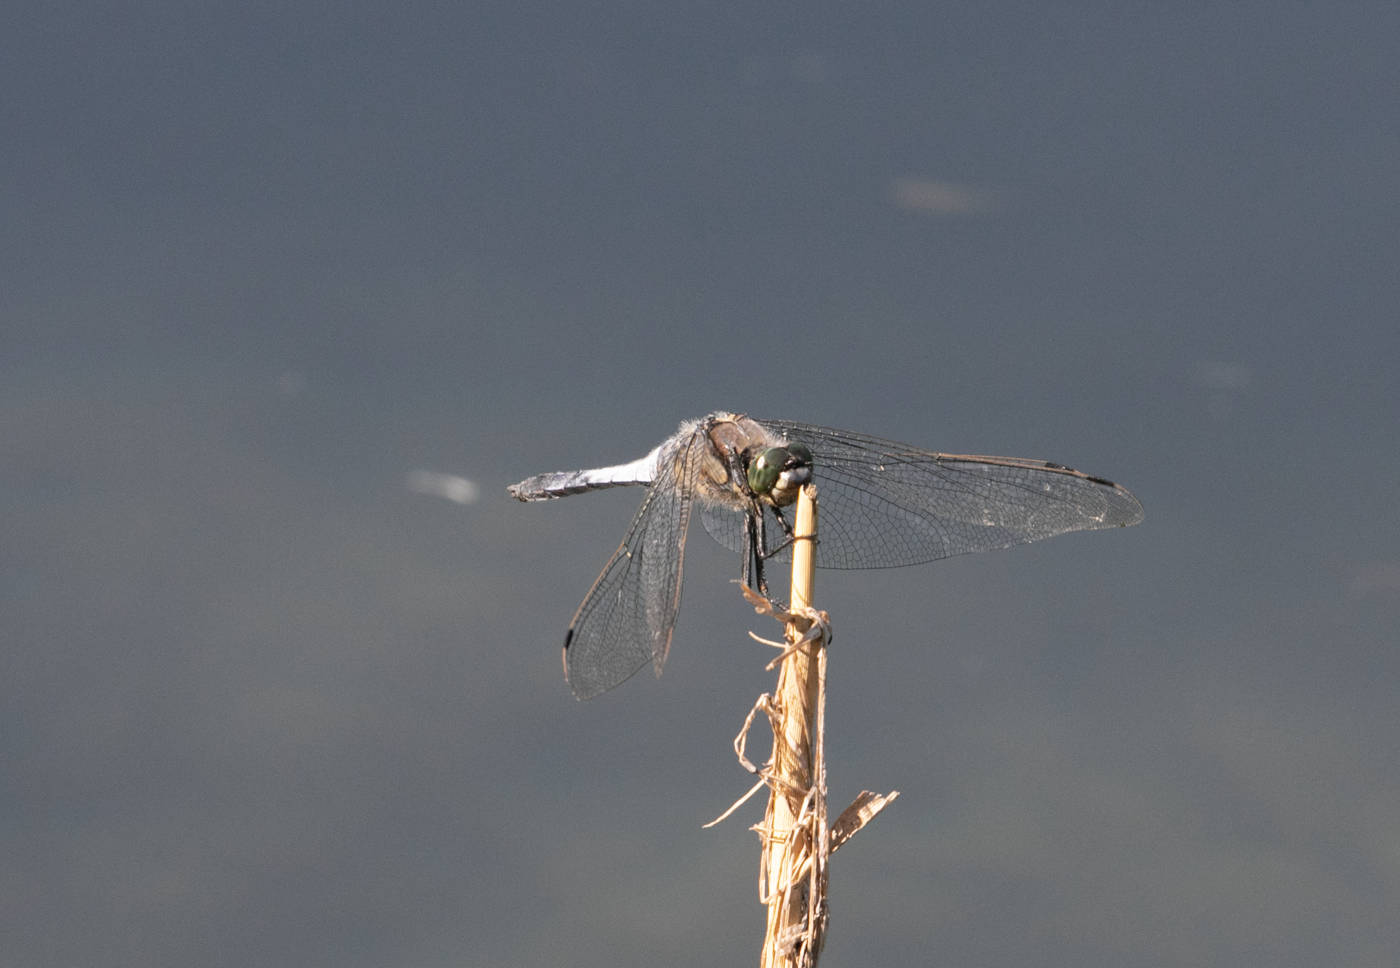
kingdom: Animalia
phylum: Arthropoda
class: Insecta
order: Odonata
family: Libellulidae
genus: Orthetrum
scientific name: Orthetrum cancellatum
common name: Black-tailed skimmer
